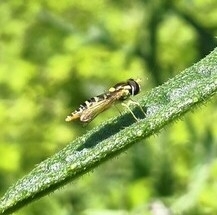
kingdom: Animalia
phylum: Arthropoda
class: Insecta
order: Diptera
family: Syrphidae
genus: Sphaerophoria
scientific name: Sphaerophoria
